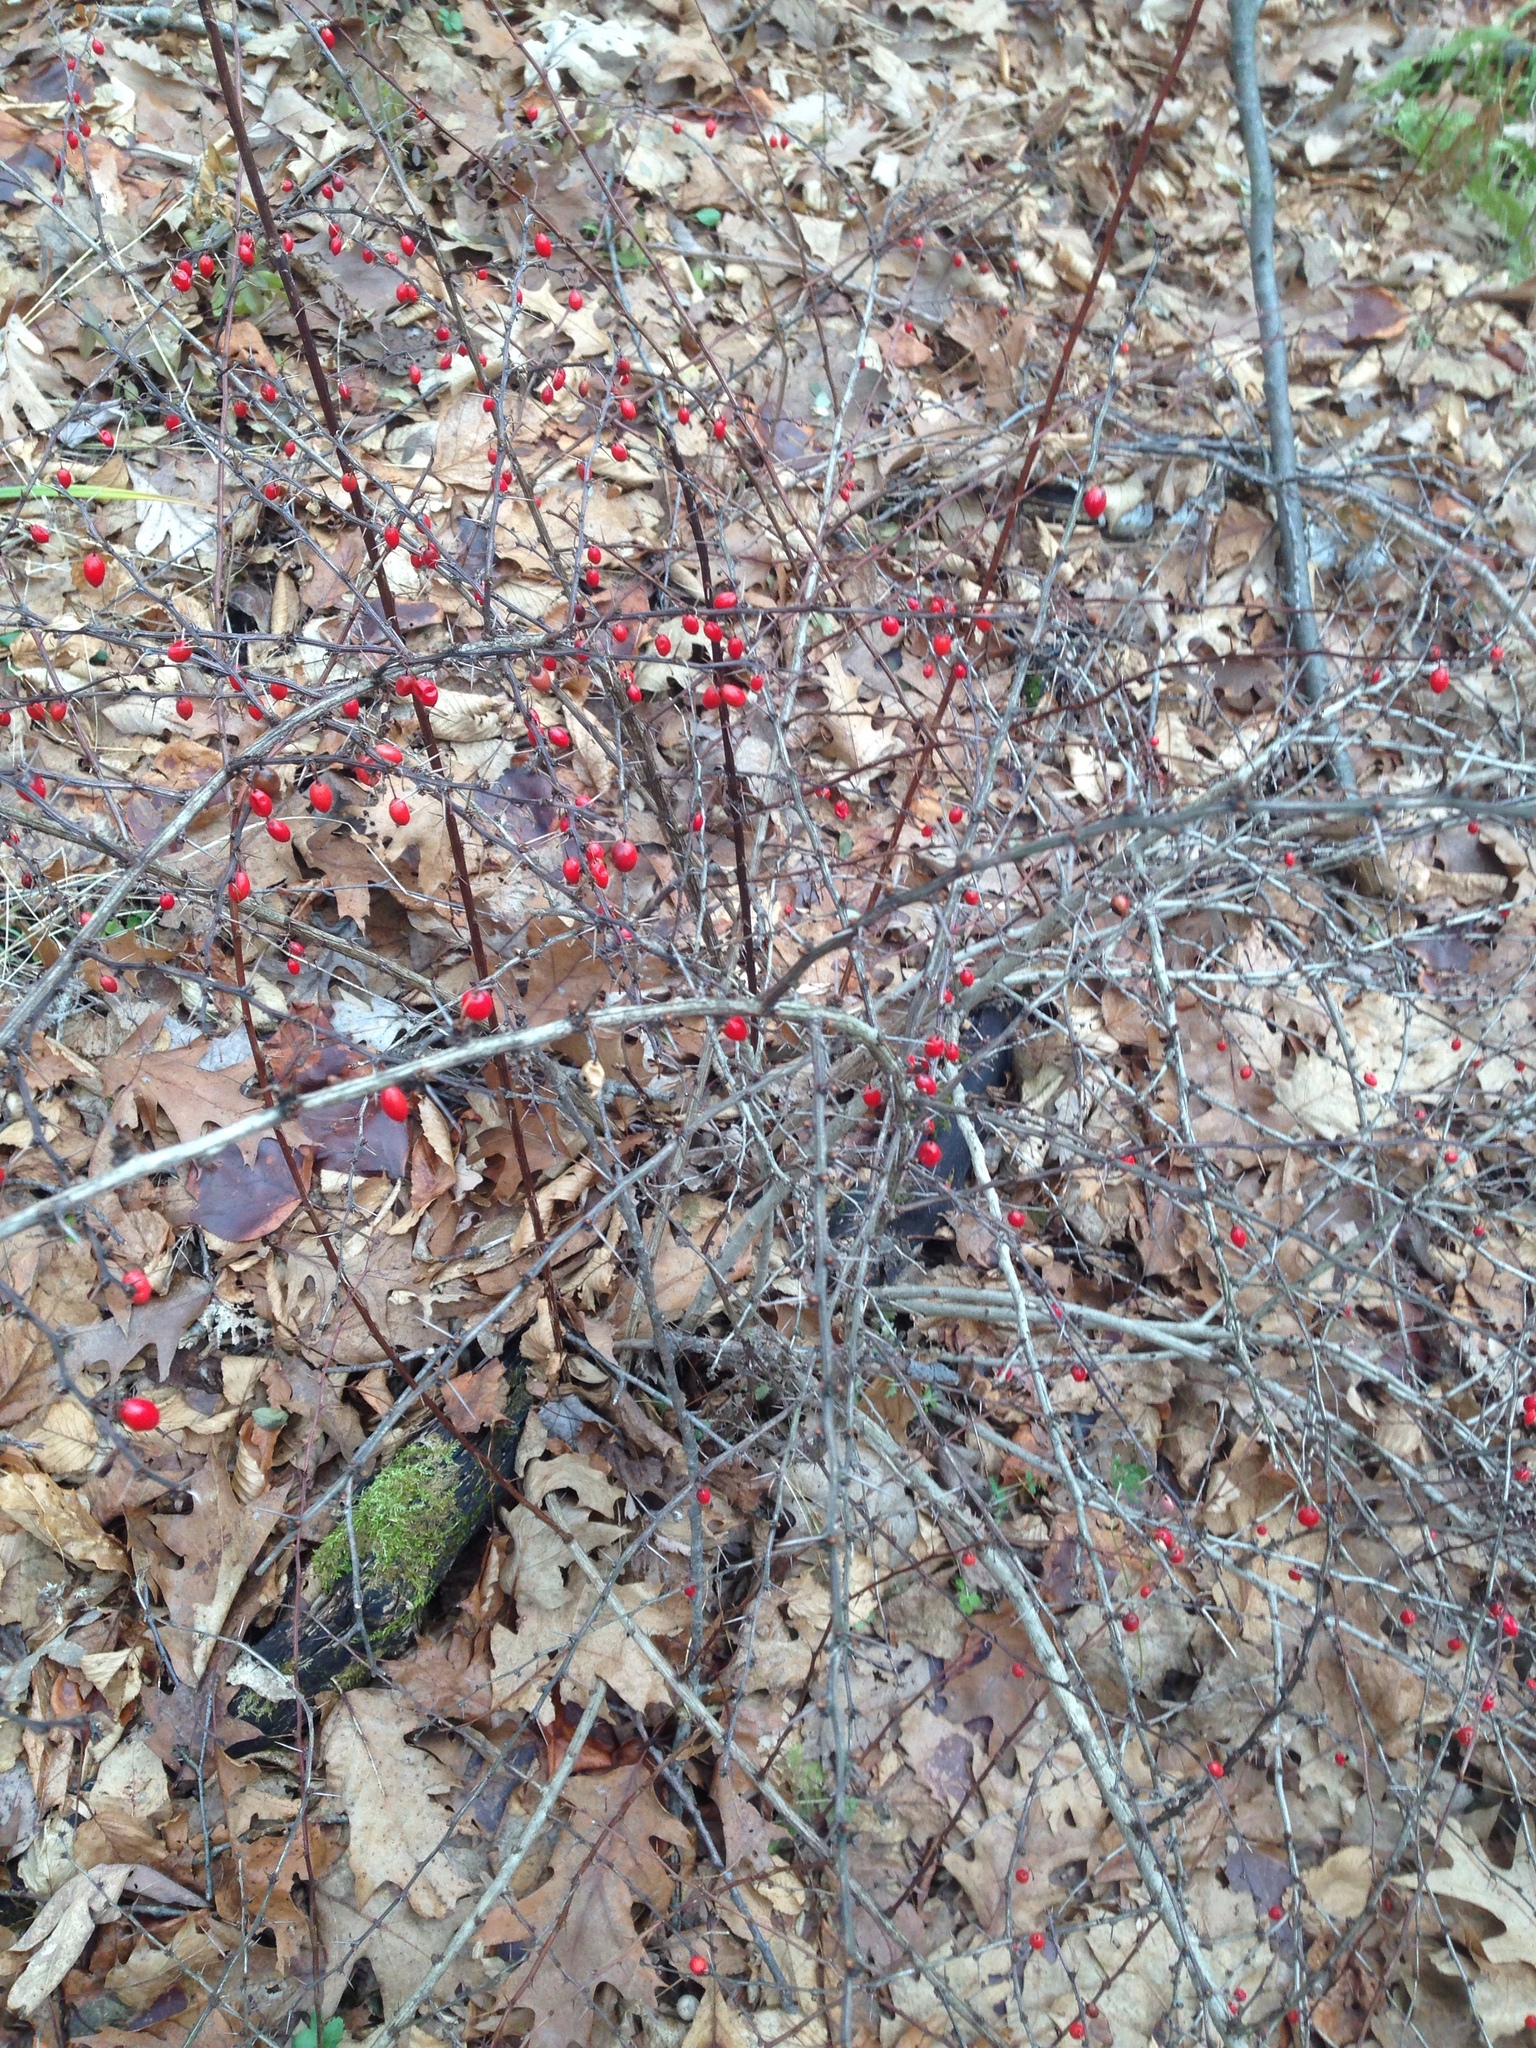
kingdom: Plantae
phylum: Tracheophyta
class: Magnoliopsida
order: Ranunculales
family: Berberidaceae
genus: Berberis
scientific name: Berberis thunbergii
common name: Japanese barberry
